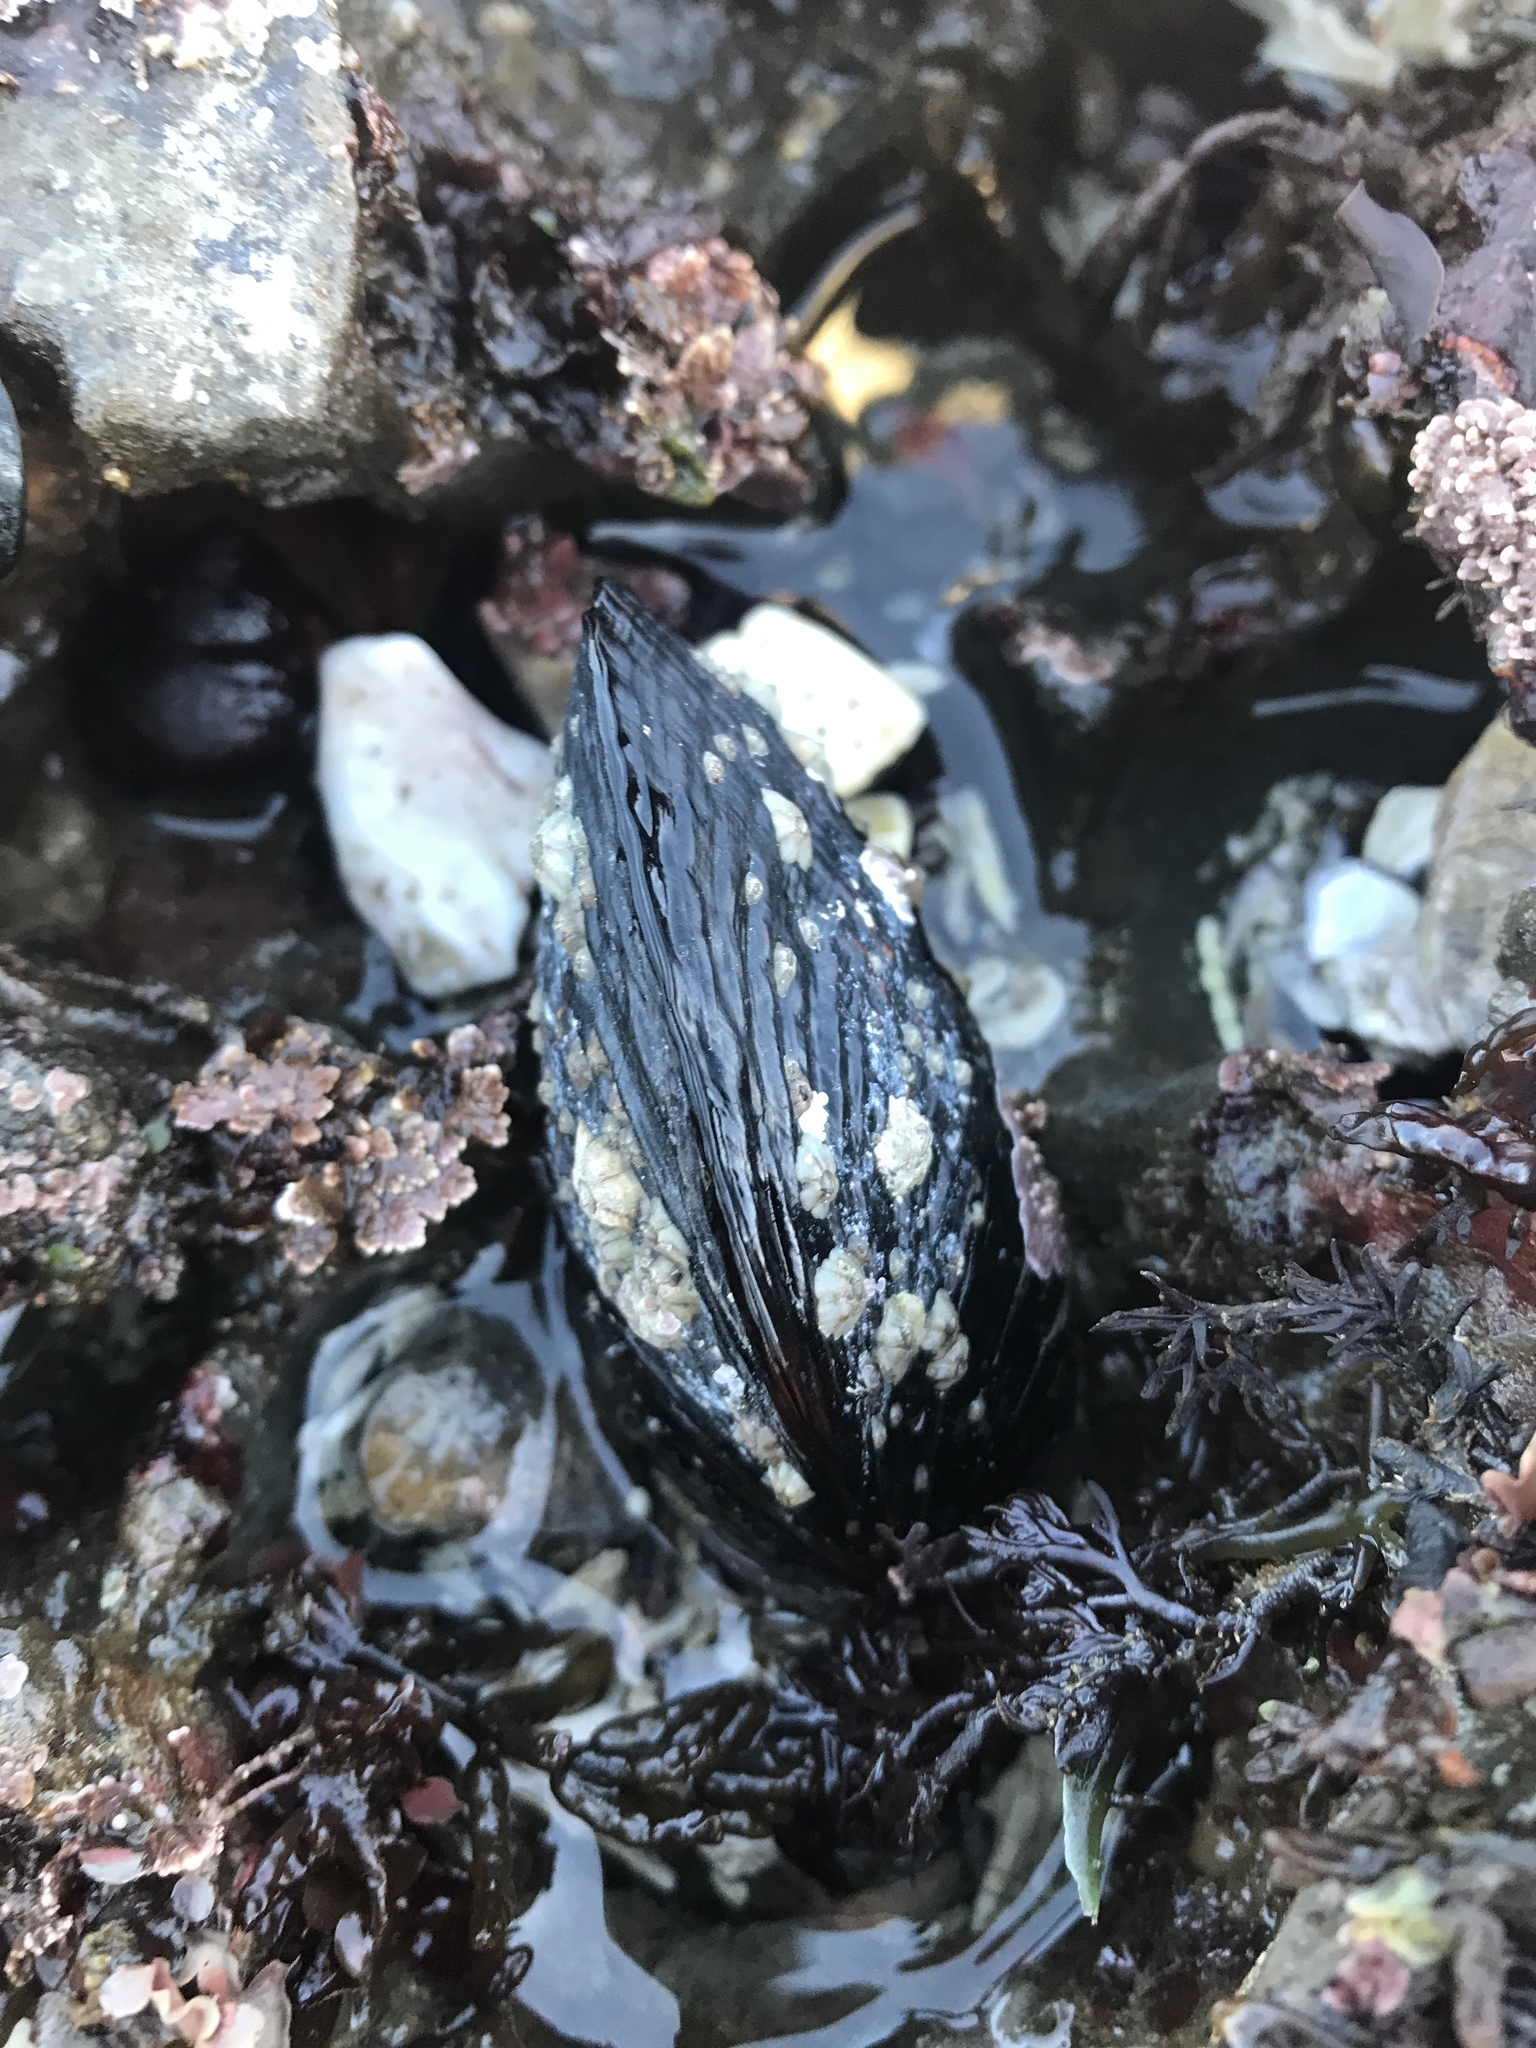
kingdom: Animalia
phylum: Mollusca
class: Bivalvia
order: Mytilida
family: Mytilidae
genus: Mytilus
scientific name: Mytilus californianus
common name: California mussel
